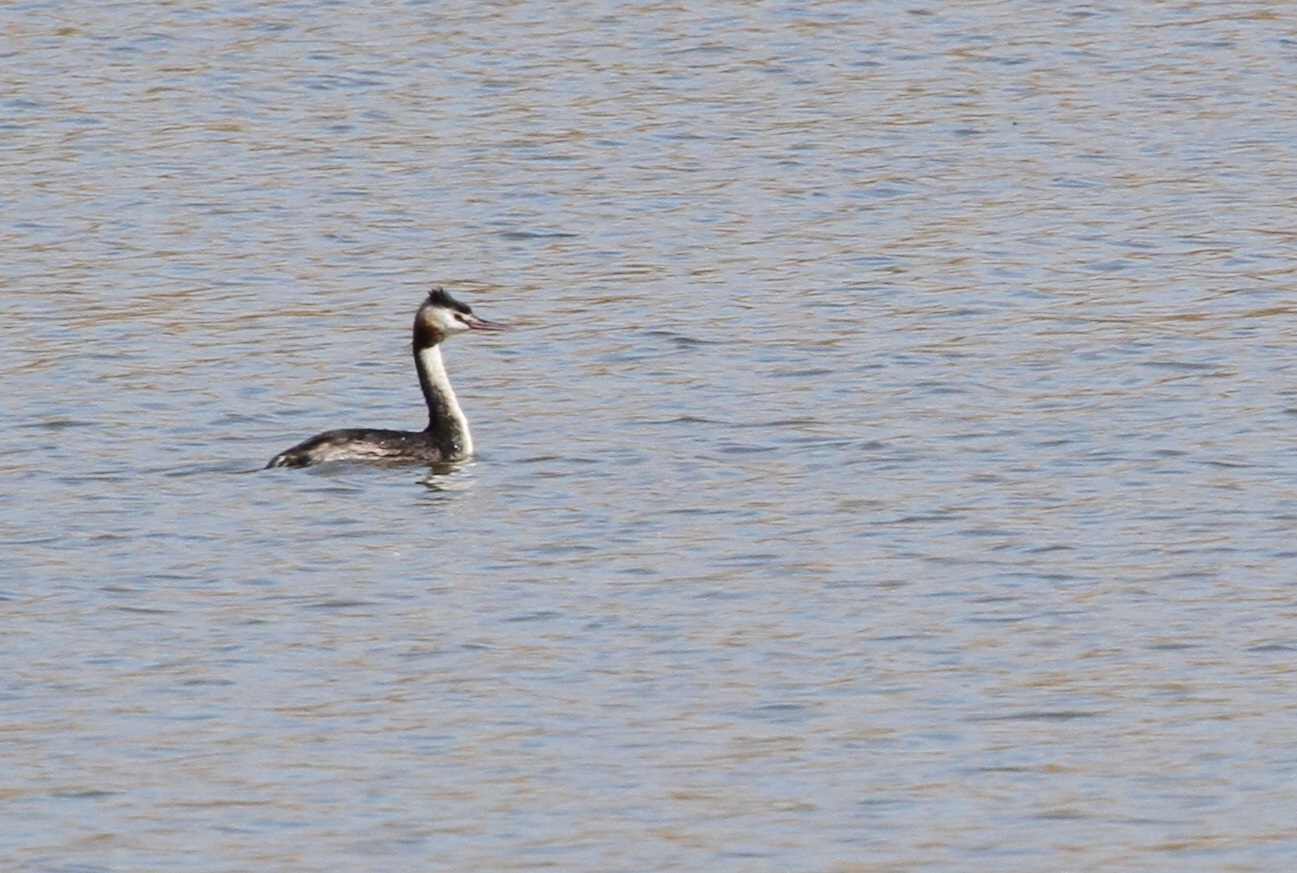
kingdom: Animalia
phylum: Chordata
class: Aves
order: Podicipediformes
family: Podicipedidae
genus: Podiceps
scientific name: Podiceps cristatus
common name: Great crested grebe
